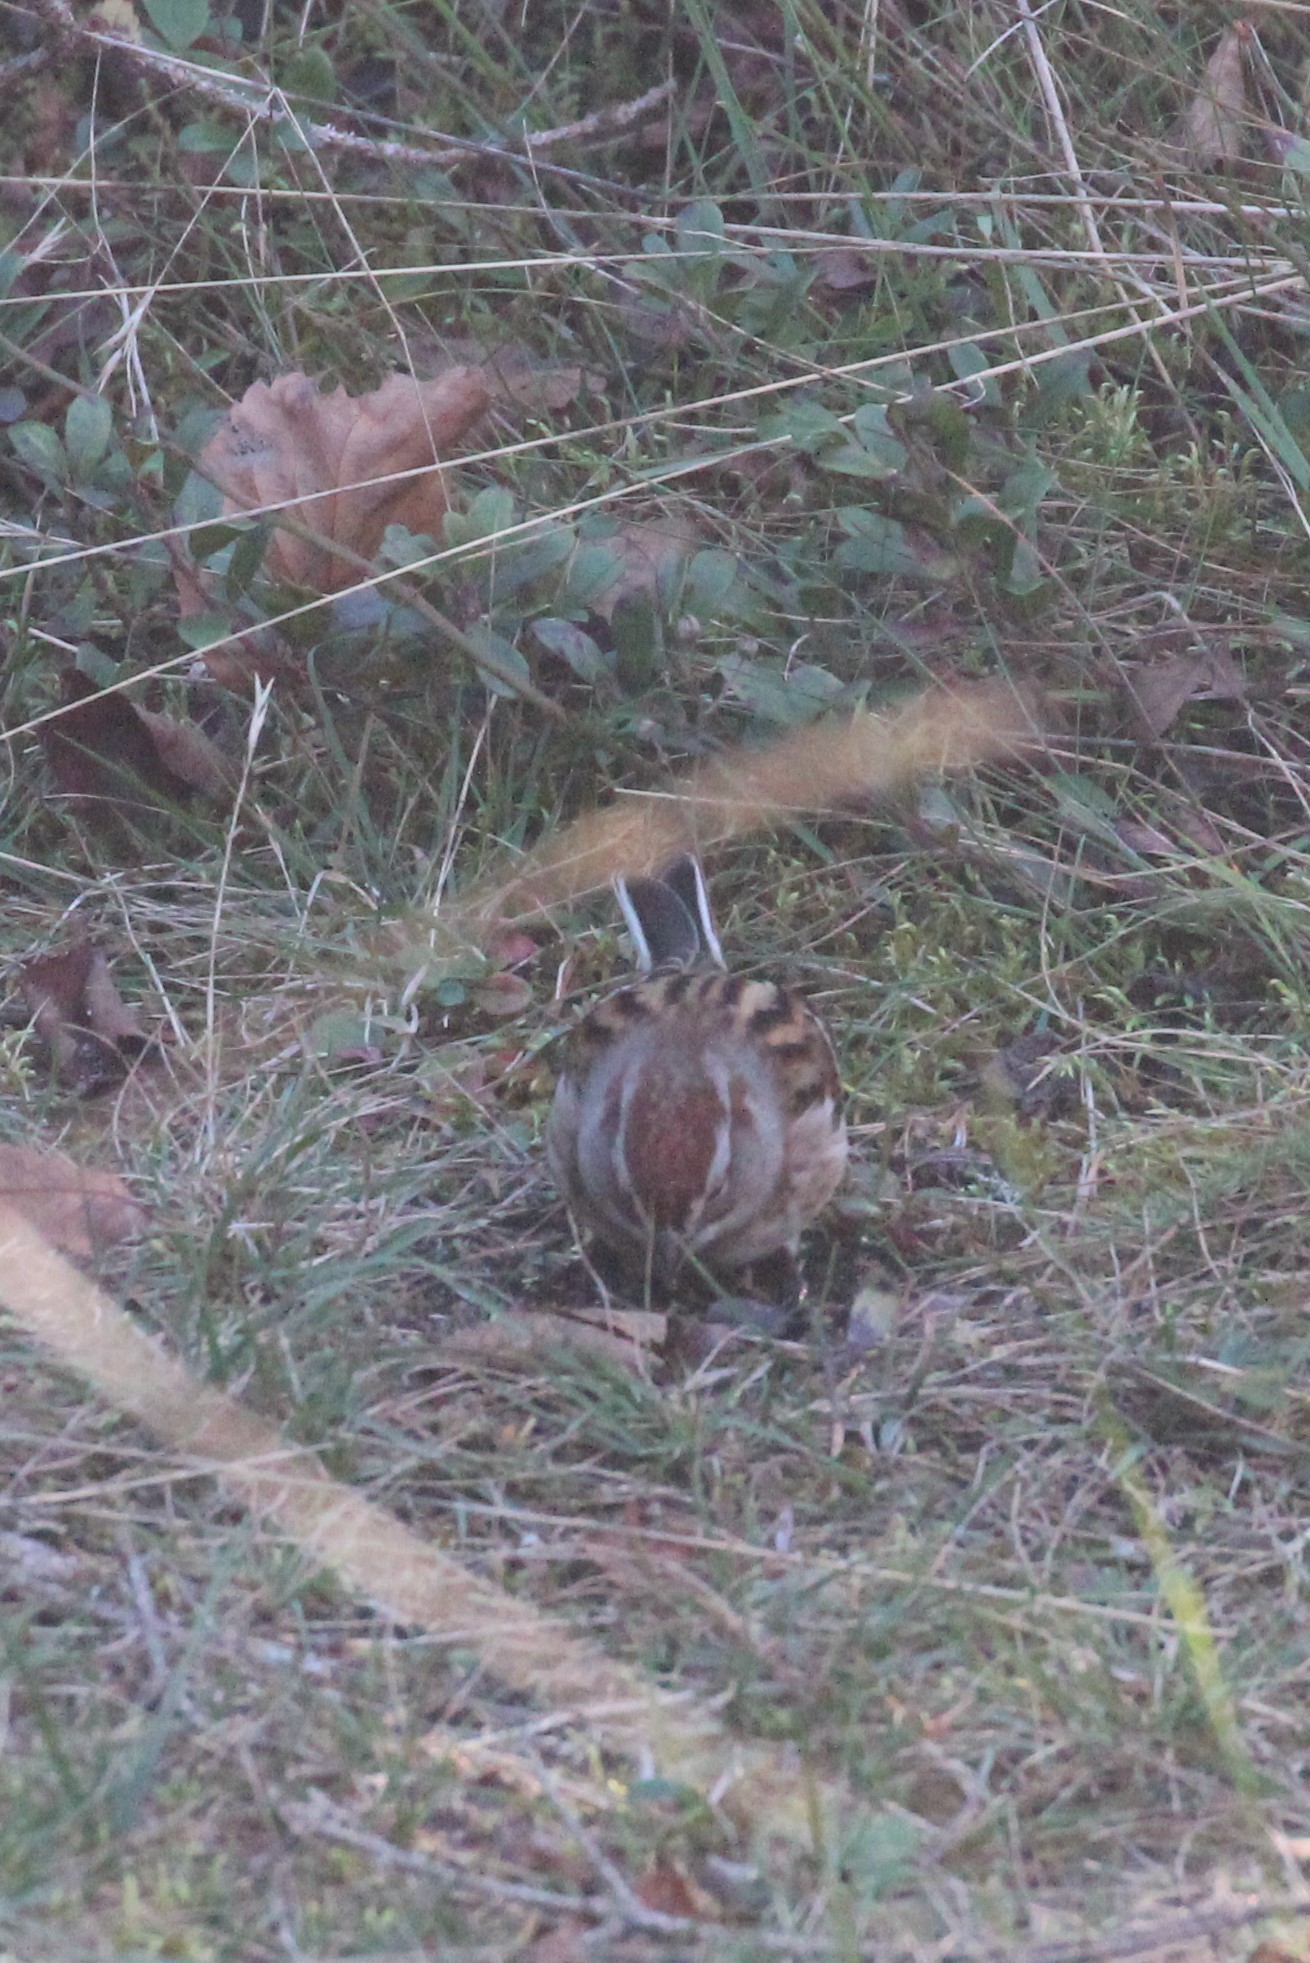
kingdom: Animalia
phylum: Chordata
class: Aves
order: Passeriformes
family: Passerellidae
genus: Spizelloides
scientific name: Spizelloides arborea
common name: American tree sparrow
